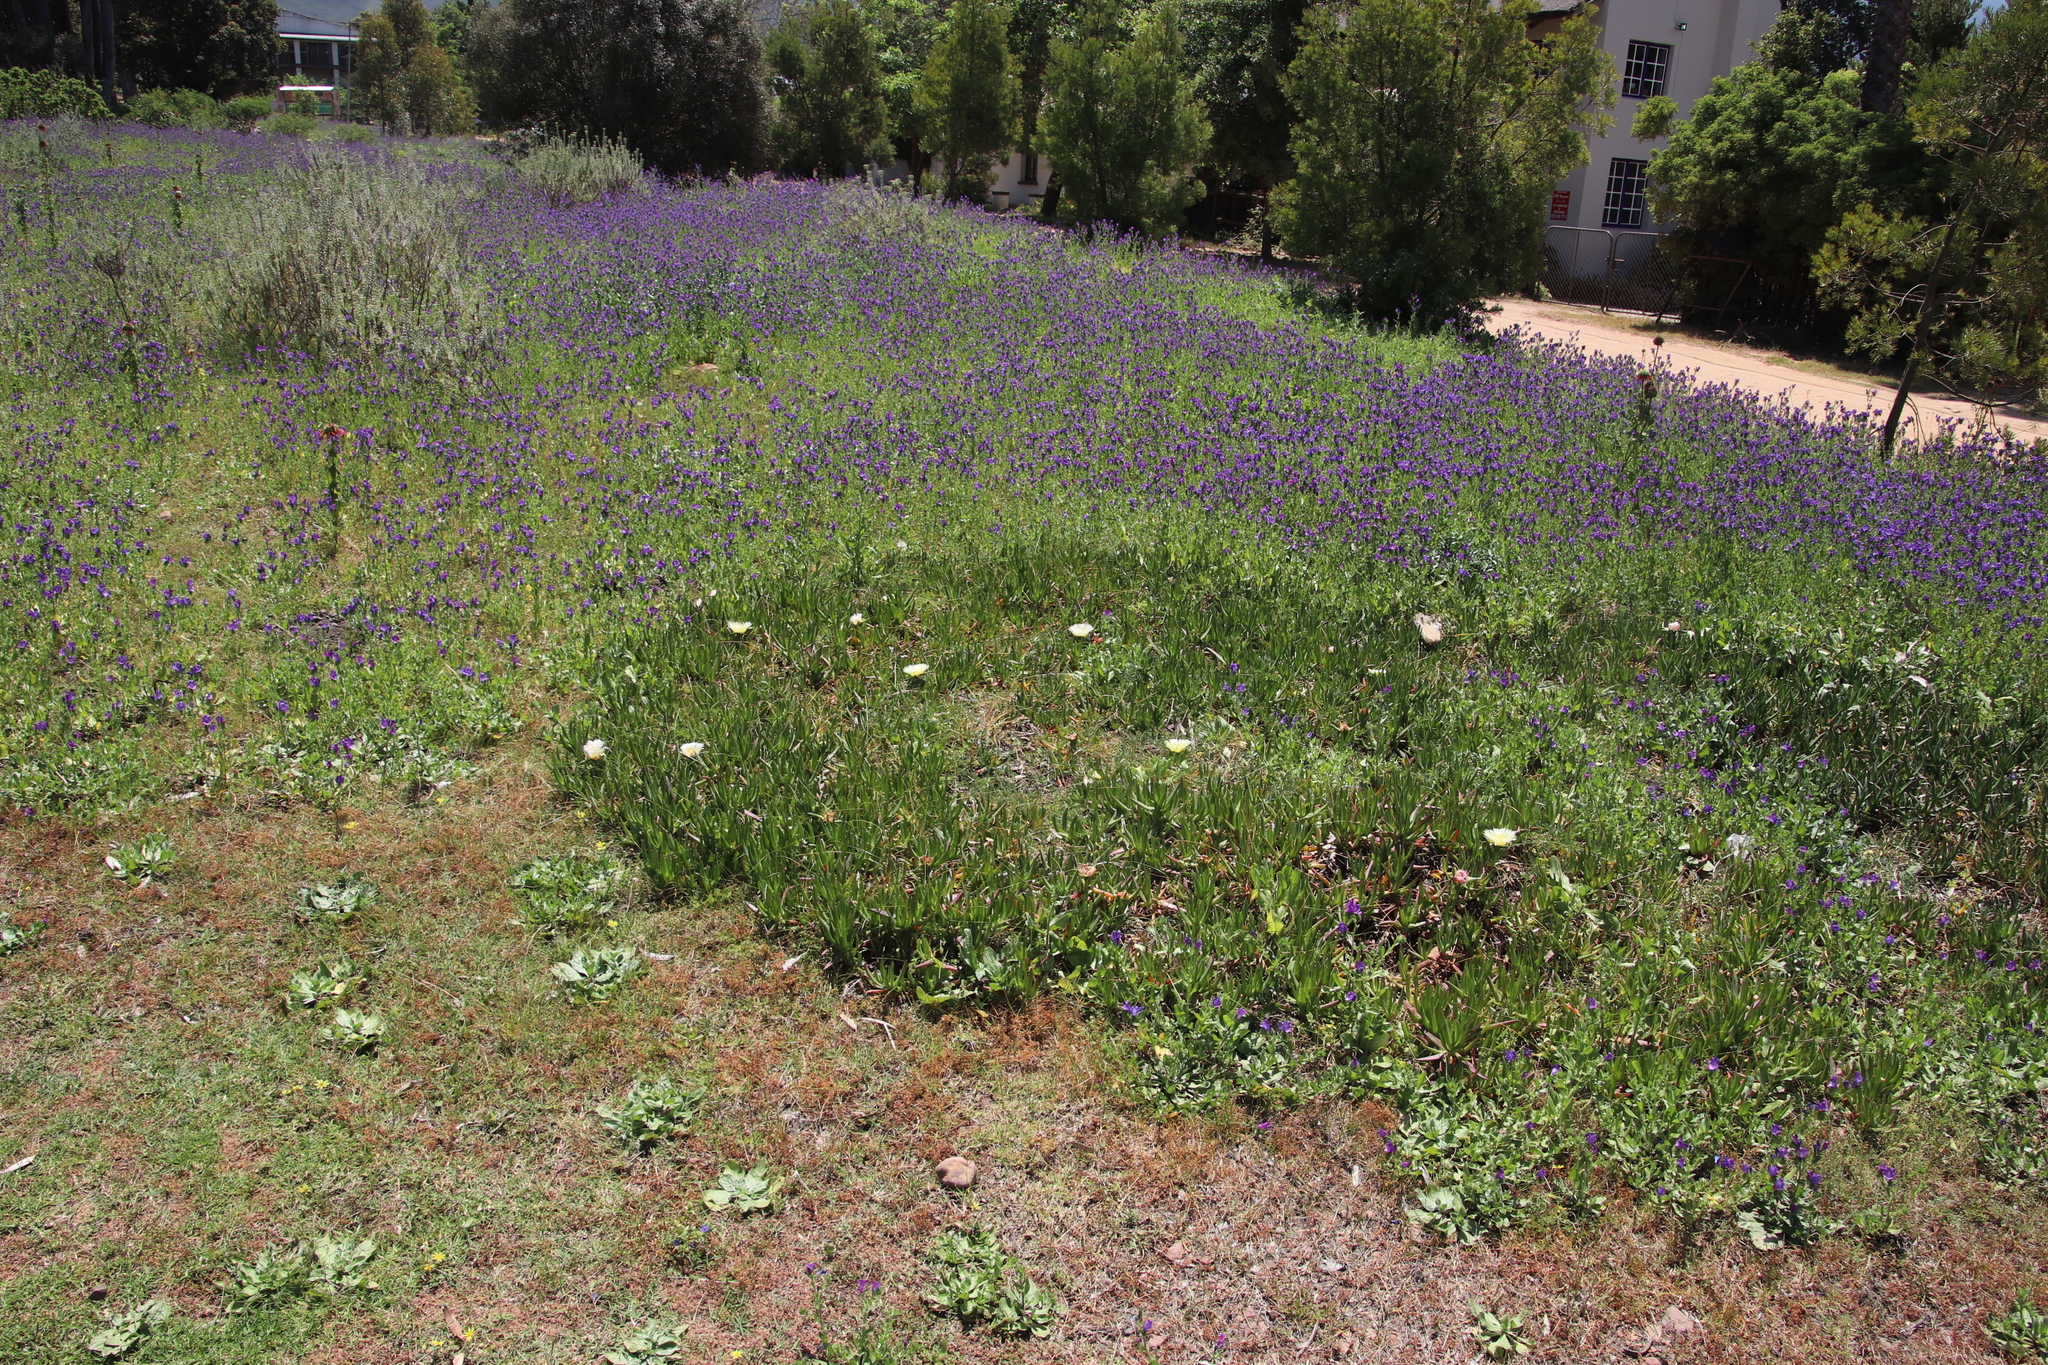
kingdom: Plantae
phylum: Tracheophyta
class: Magnoliopsida
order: Caryophyllales
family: Aizoaceae
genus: Carpobrotus
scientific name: Carpobrotus edulis
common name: Hottentot-fig
